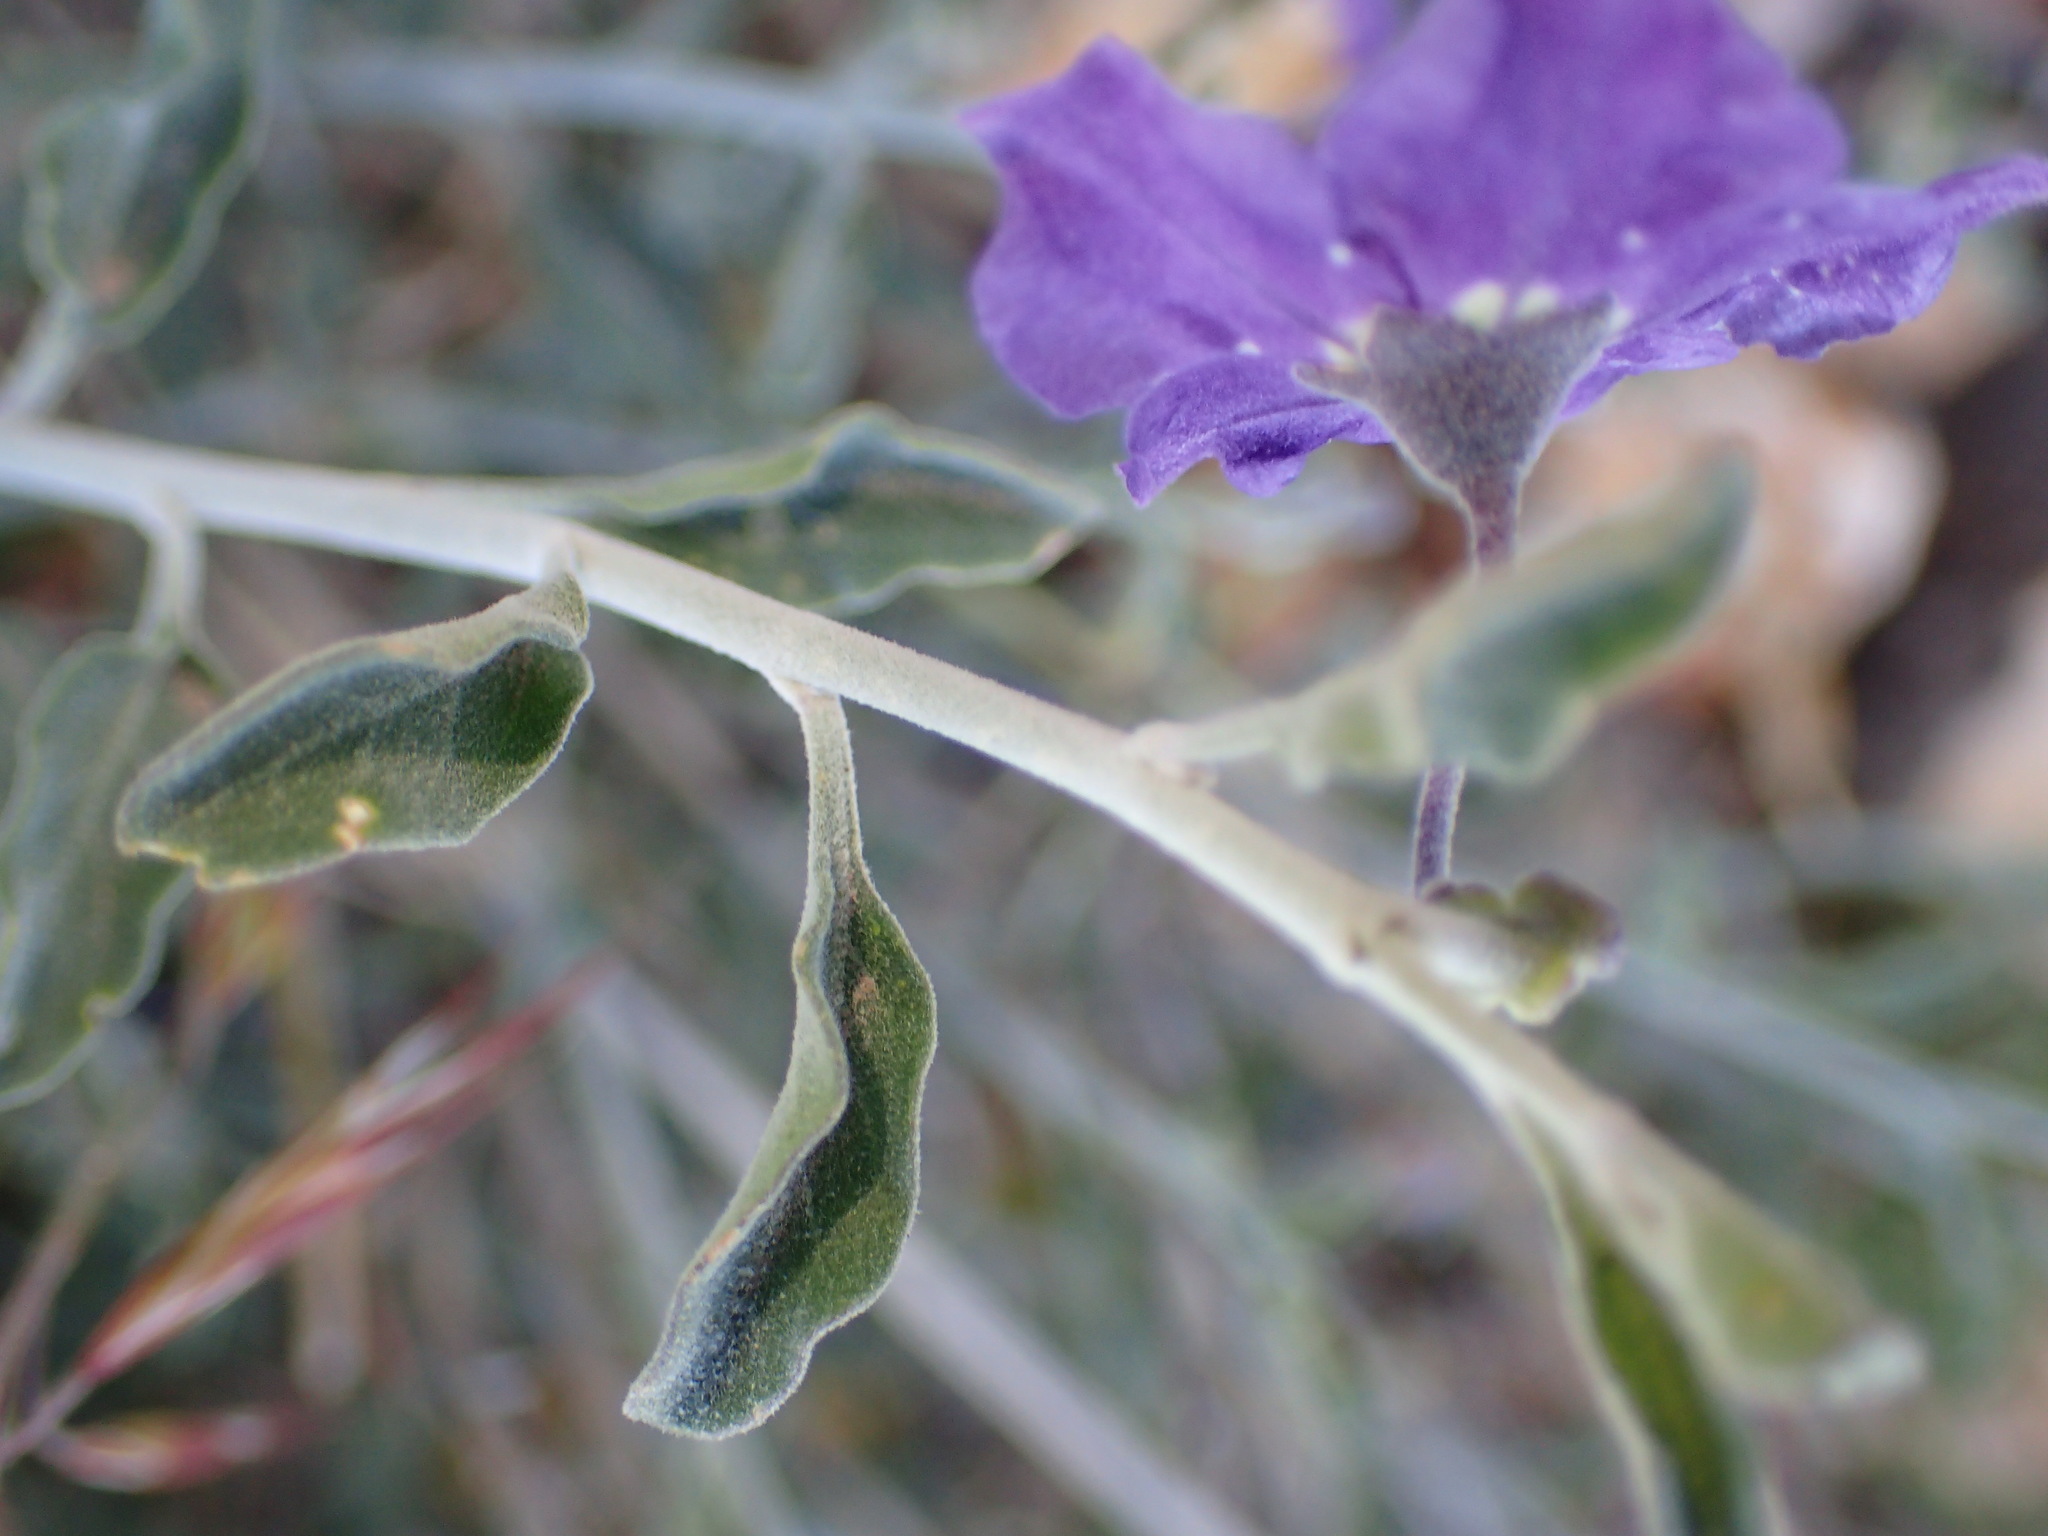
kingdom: Plantae
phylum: Tracheophyta
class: Magnoliopsida
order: Solanales
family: Solanaceae
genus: Solanum
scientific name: Solanum umbelliferum
